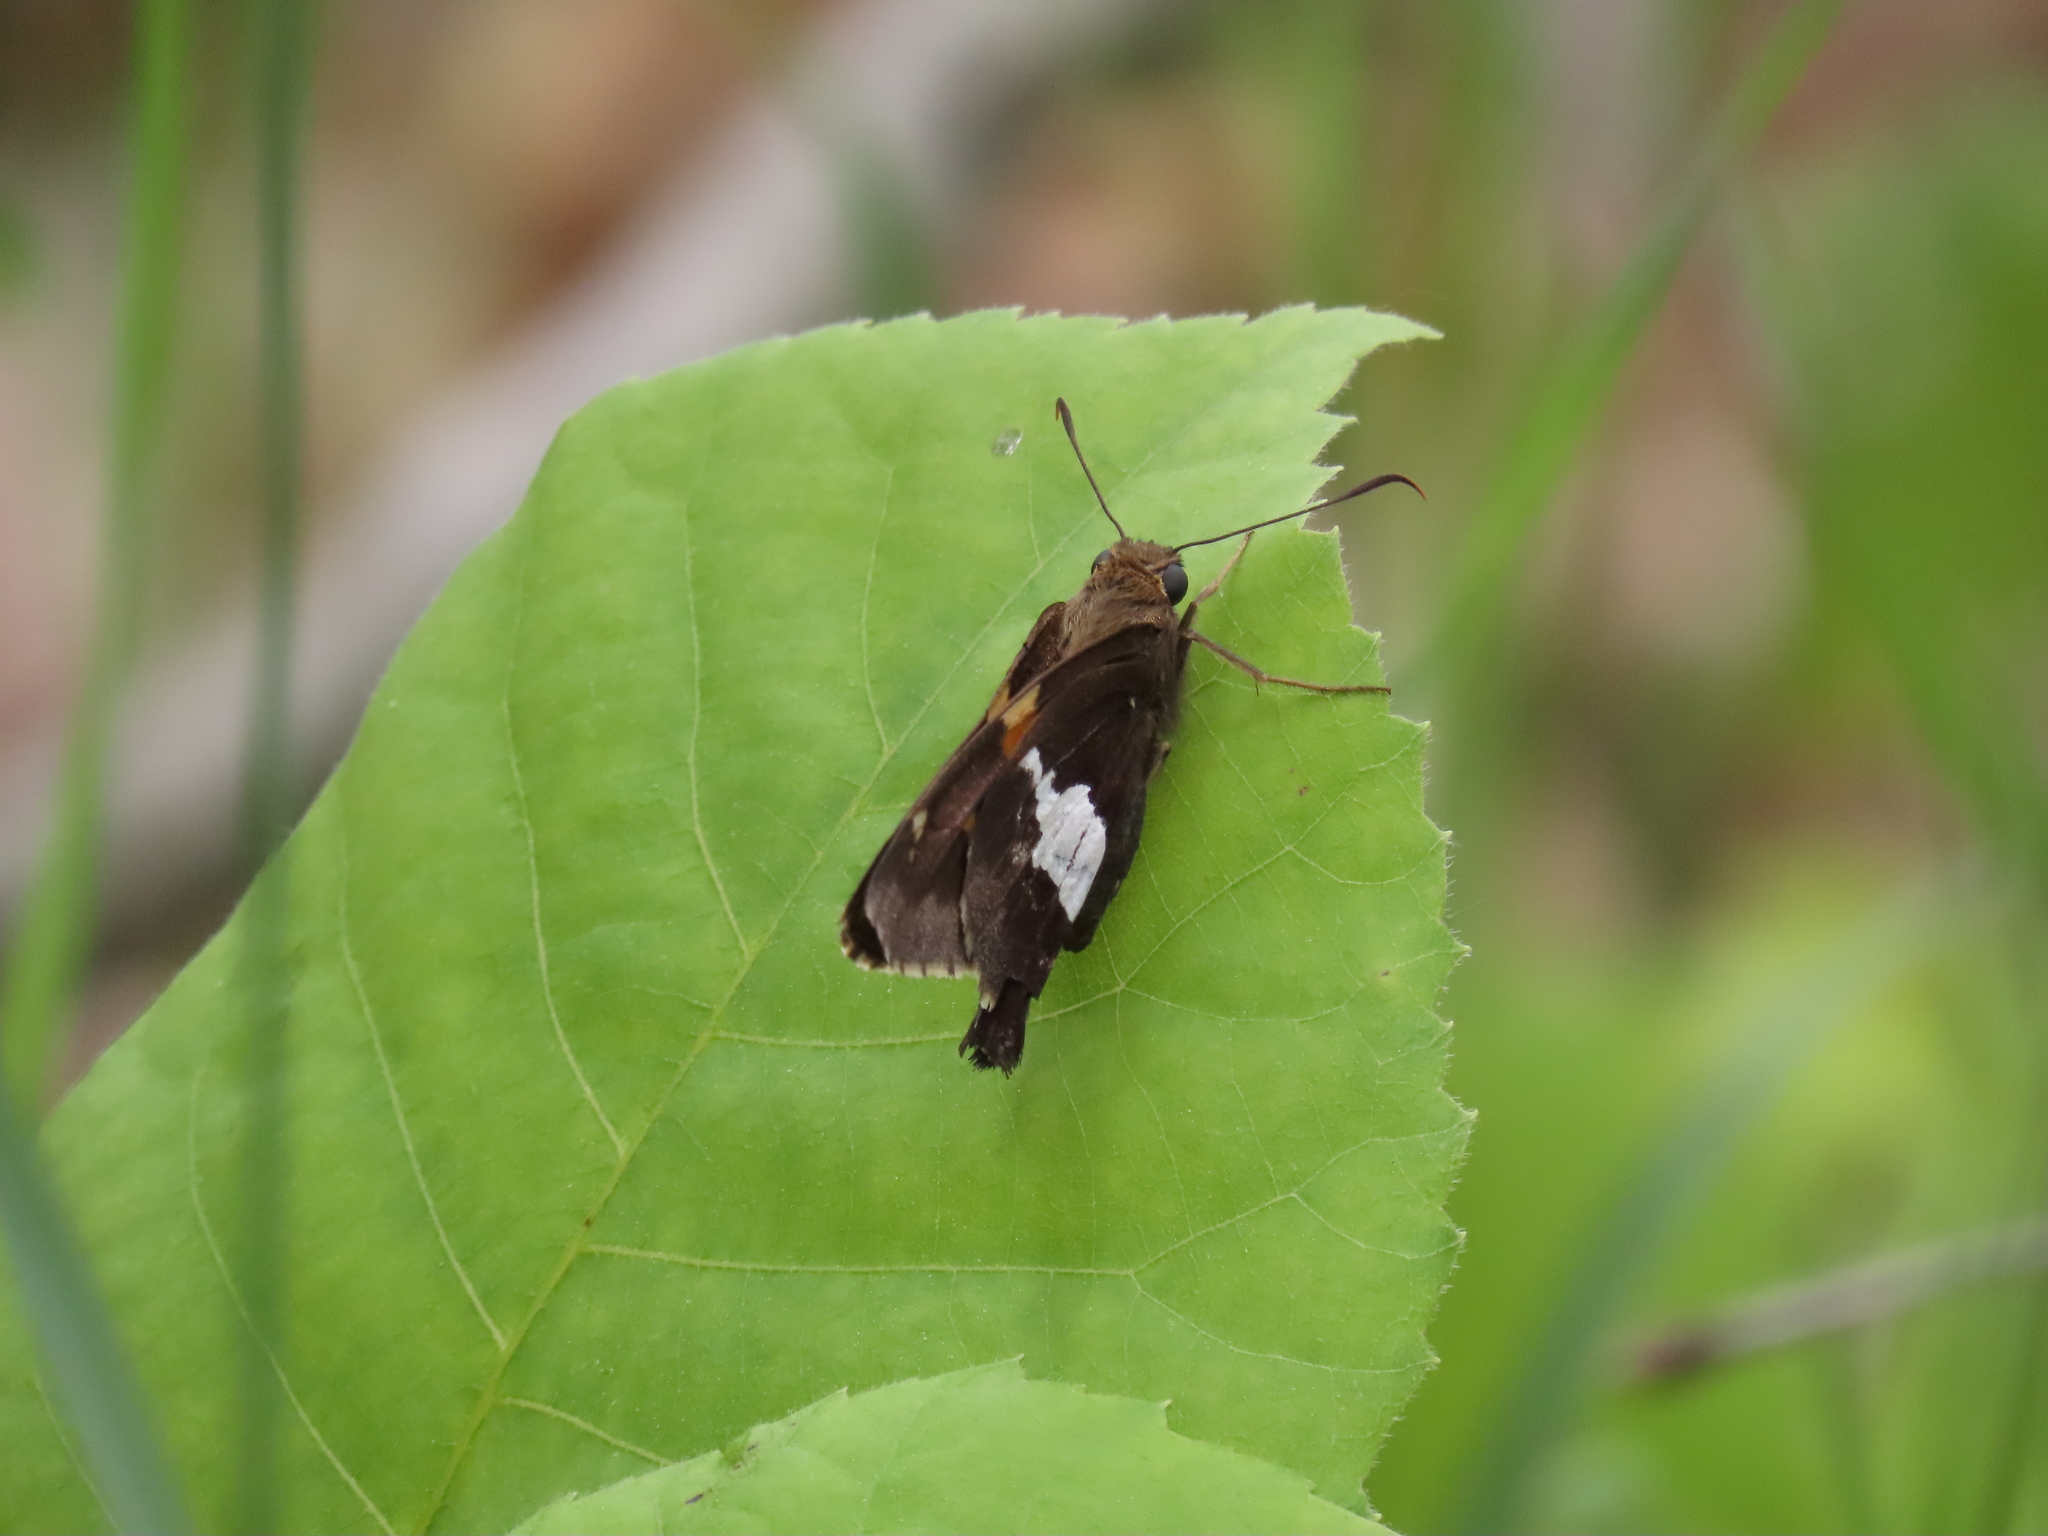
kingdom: Animalia
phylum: Arthropoda
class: Insecta
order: Lepidoptera
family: Hesperiidae
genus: Epargyreus
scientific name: Epargyreus clarus
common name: Silver-spotted skipper
